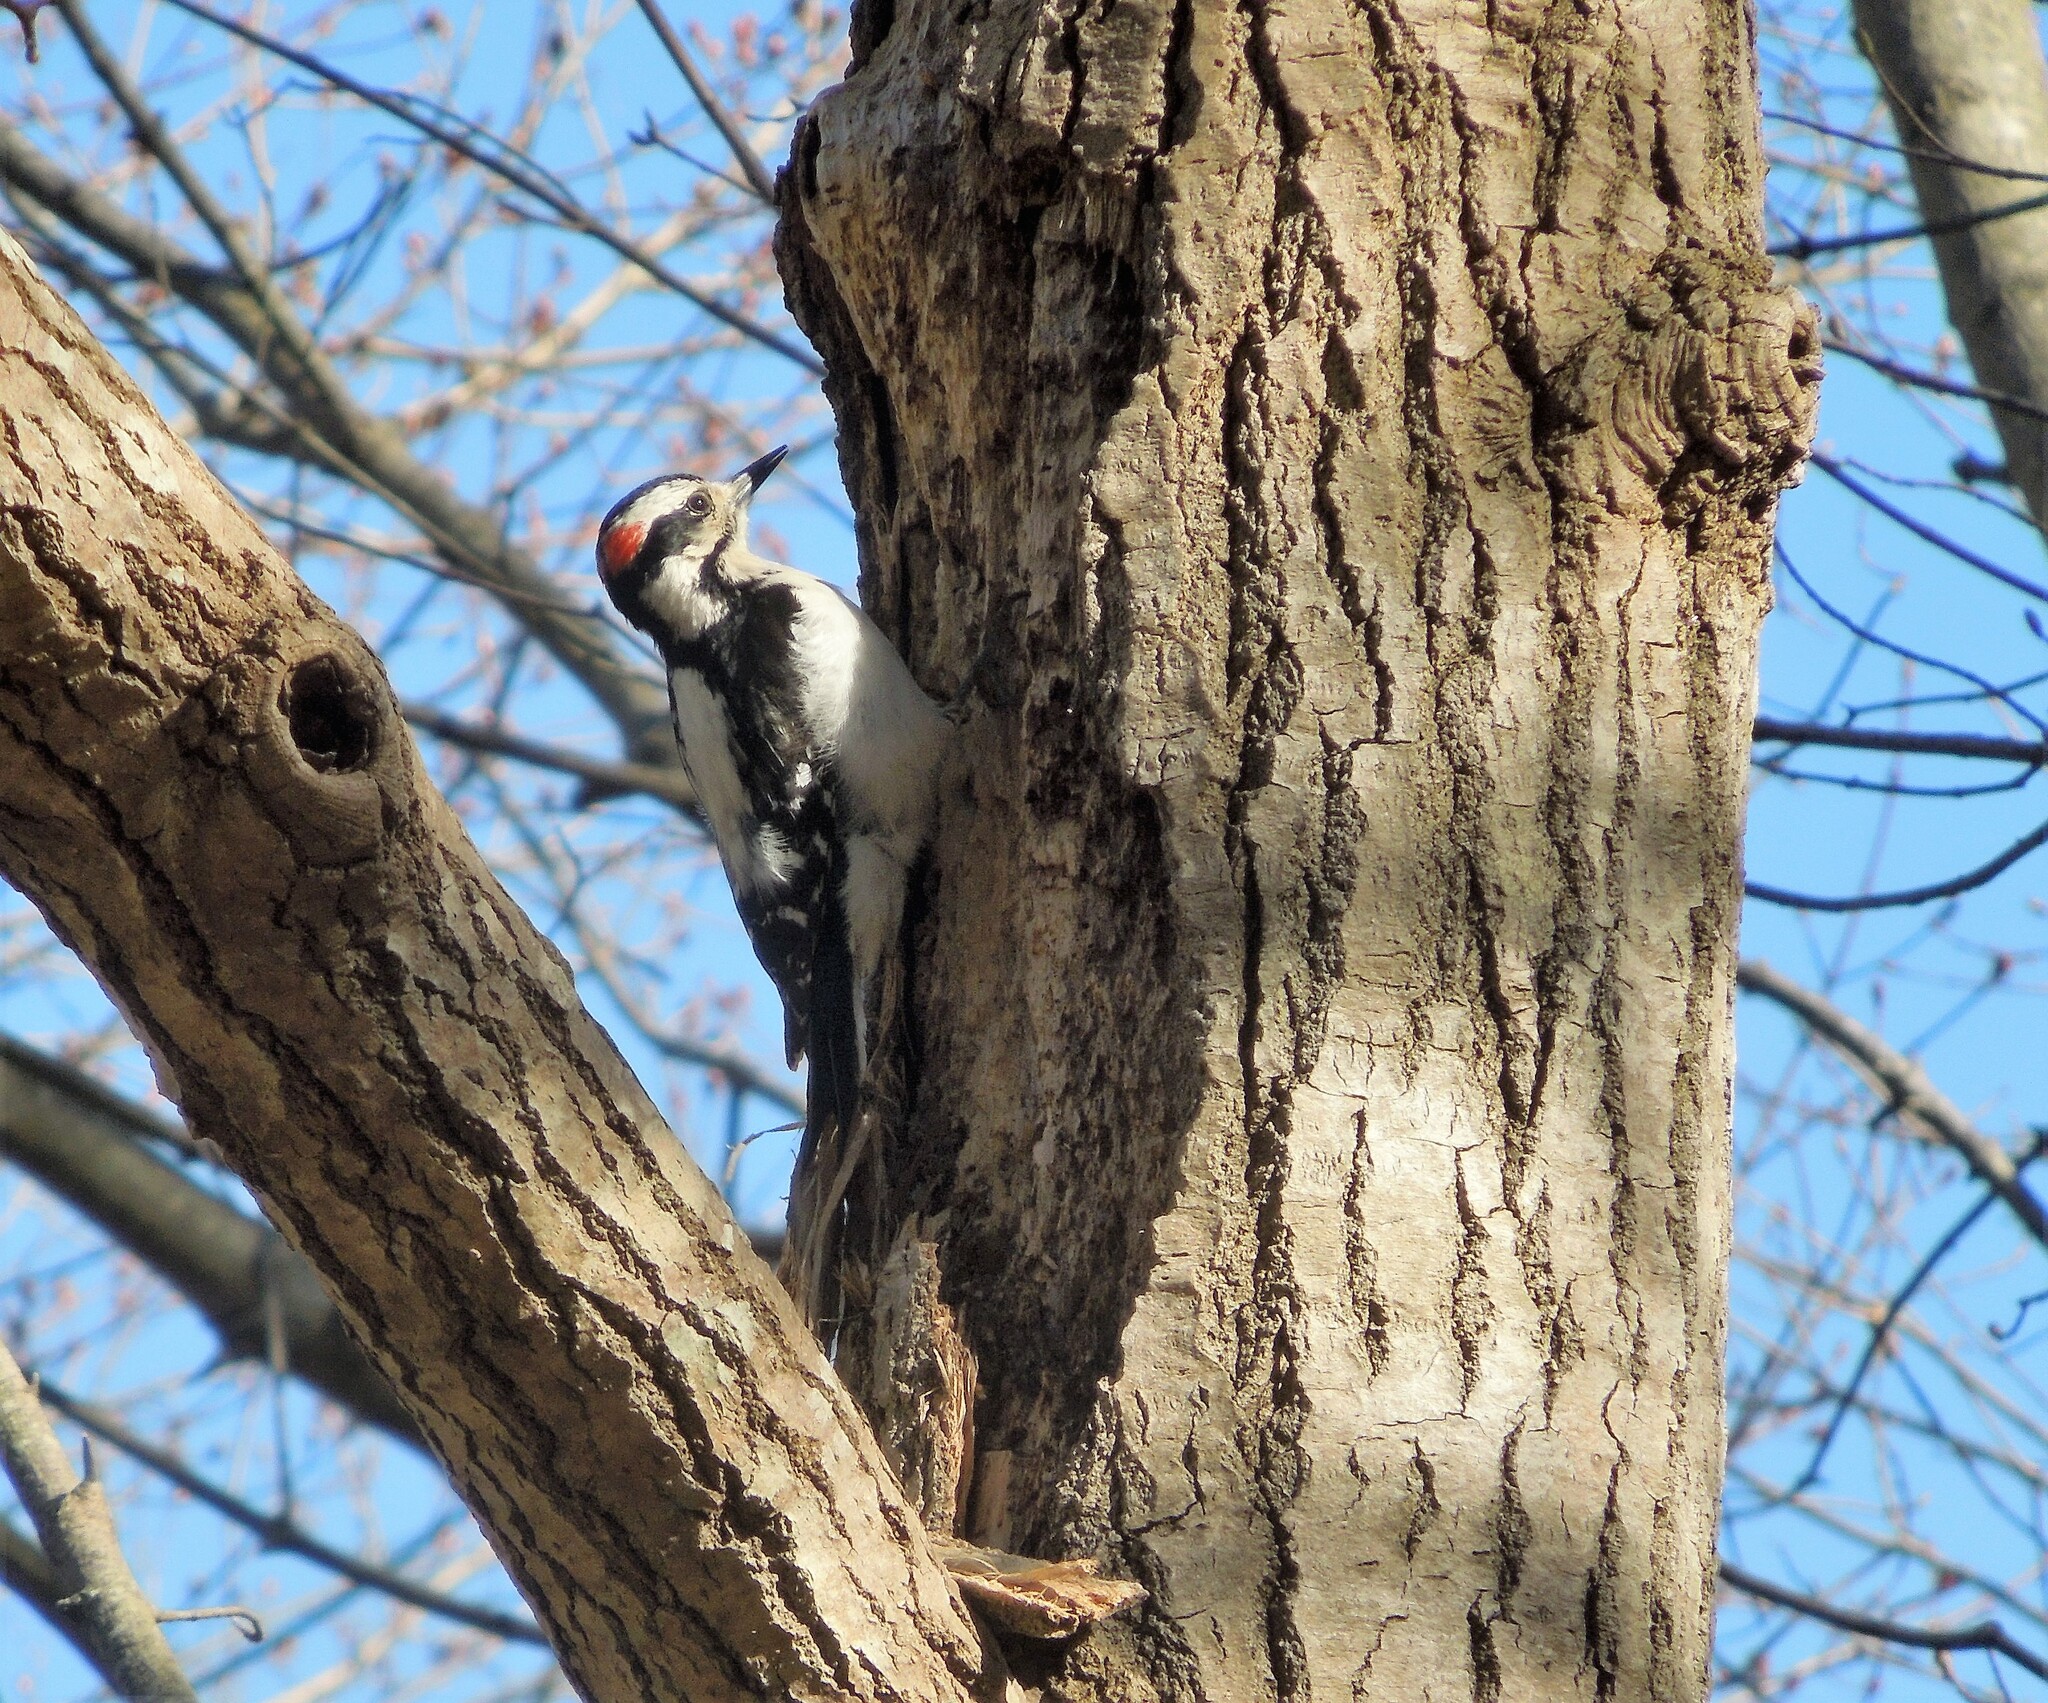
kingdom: Animalia
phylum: Chordata
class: Aves
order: Piciformes
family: Picidae
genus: Leuconotopicus
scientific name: Leuconotopicus villosus
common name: Hairy woodpecker
